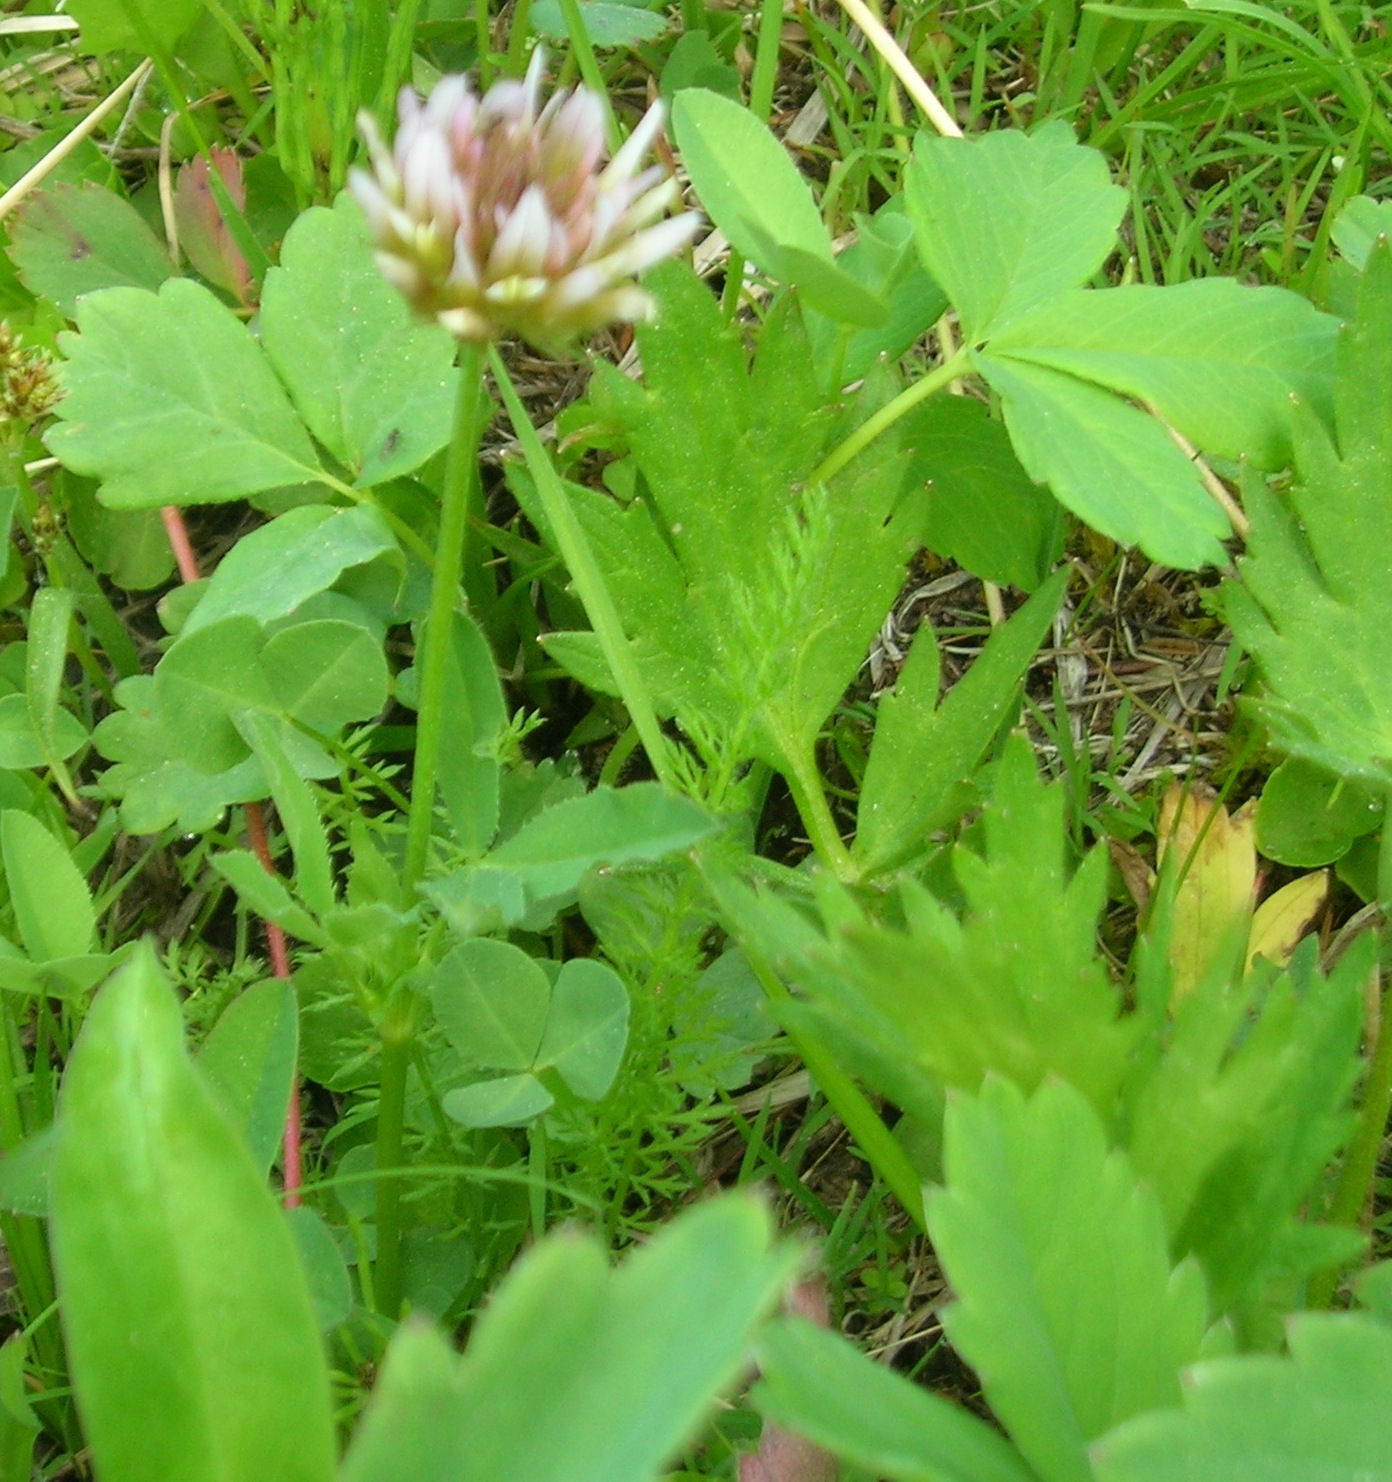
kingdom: Plantae
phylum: Tracheophyta
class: Magnoliopsida
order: Fabales
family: Fabaceae
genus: Trifolium
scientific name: Trifolium longipes
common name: Long-stalk clover
